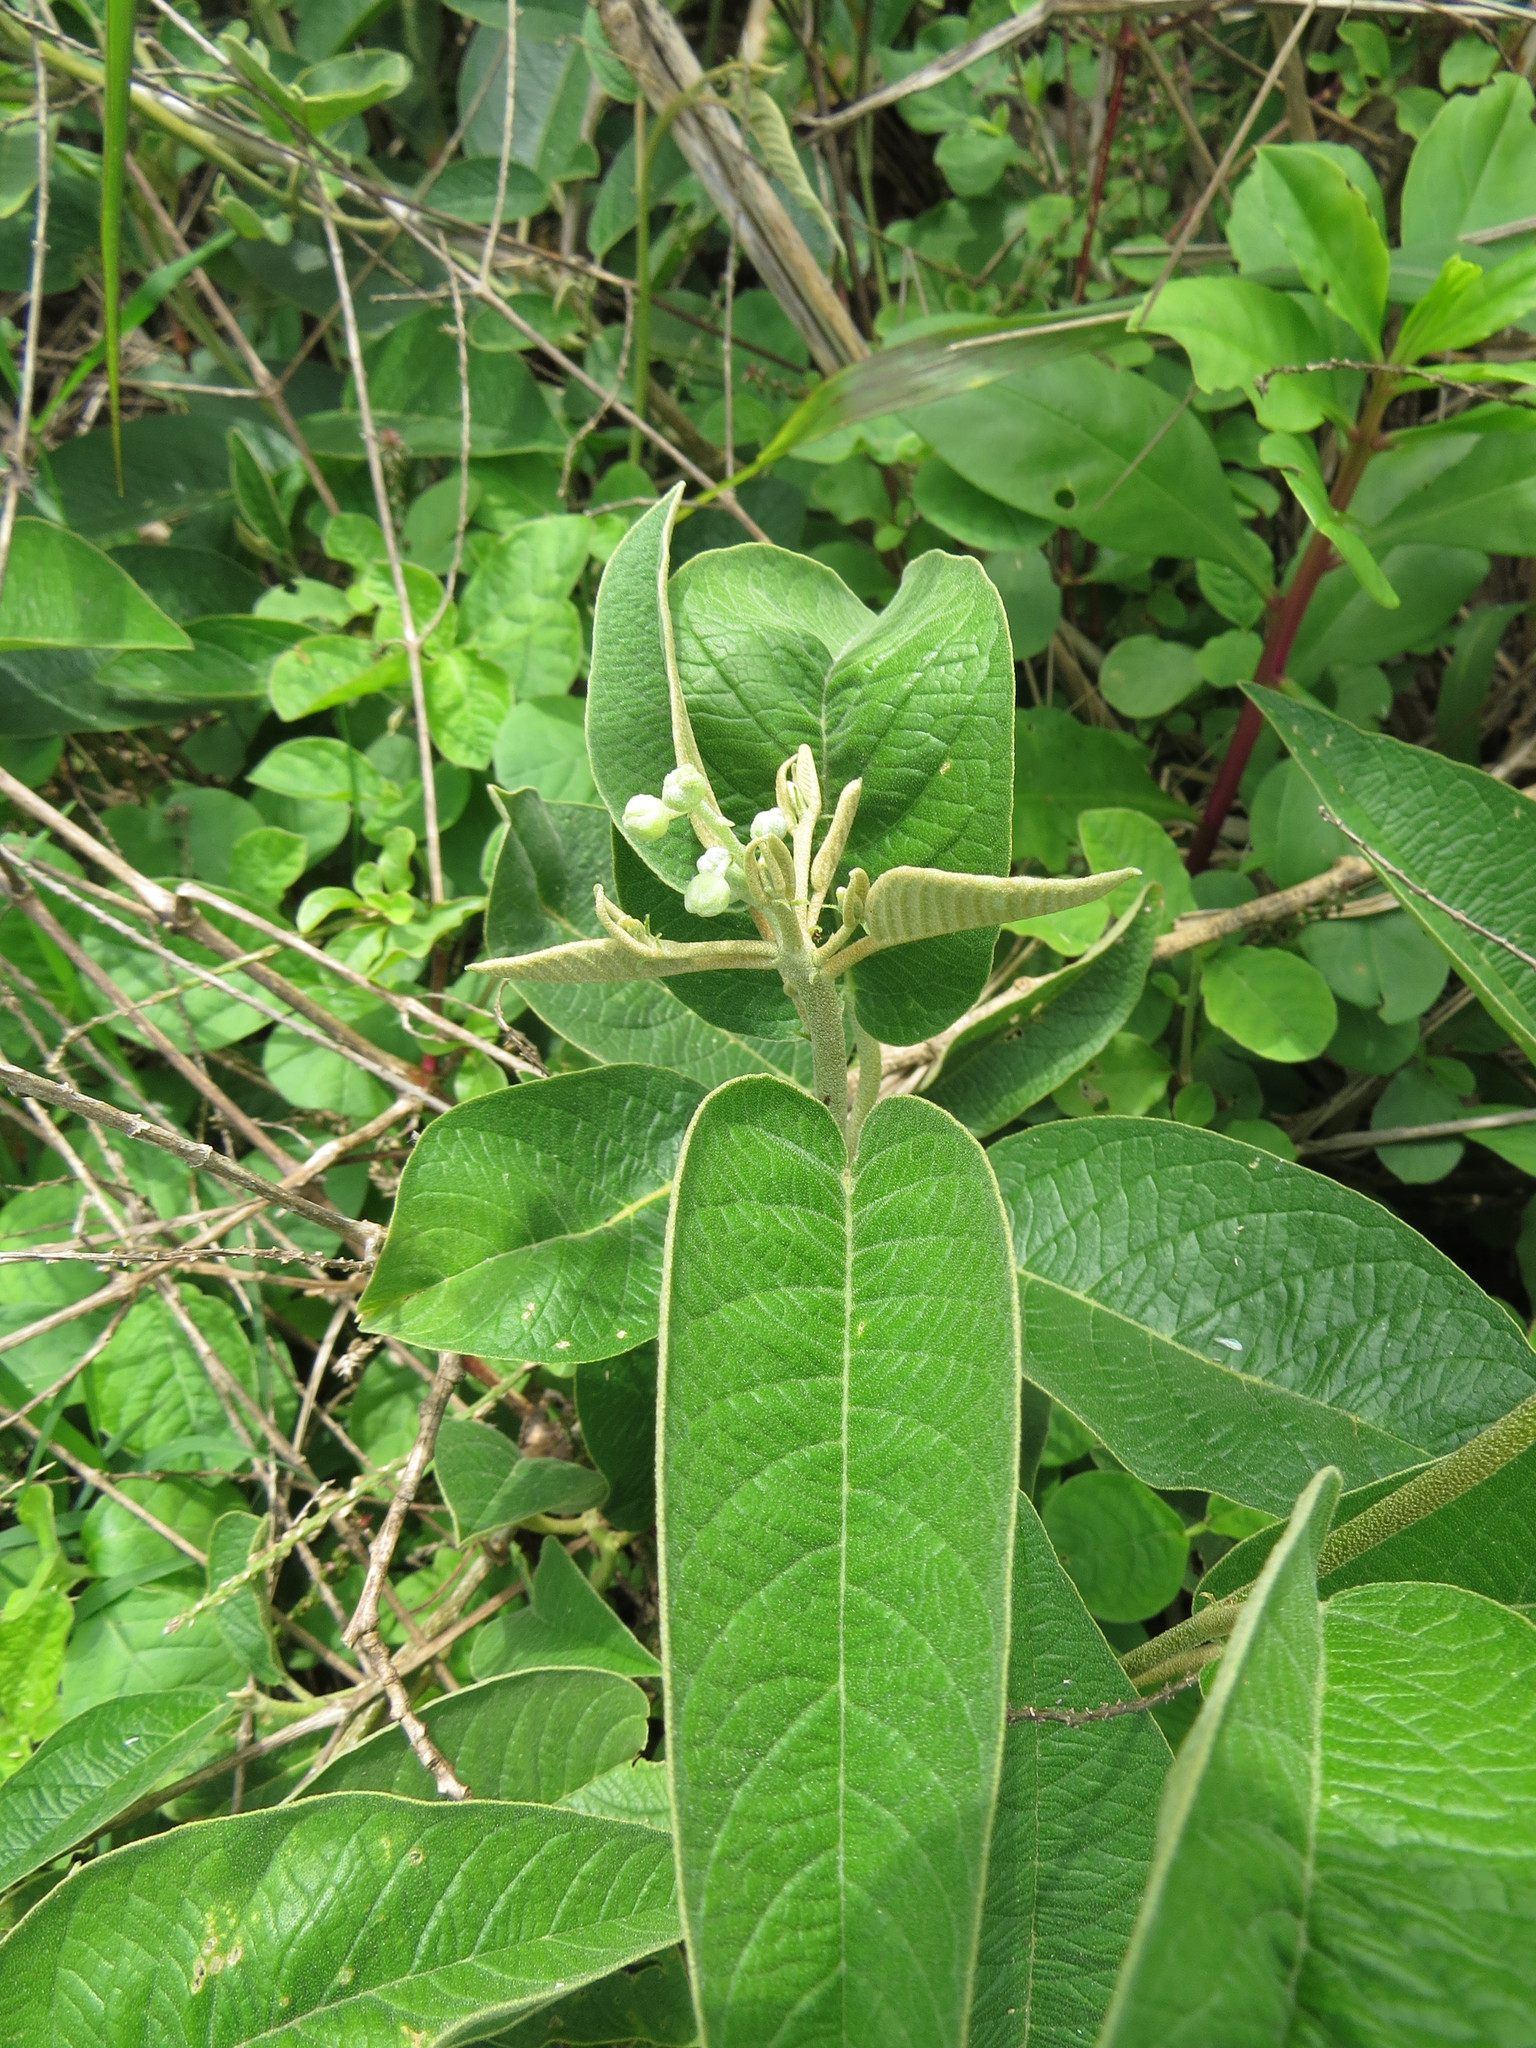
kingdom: Plantae
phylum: Tracheophyta
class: Magnoliopsida
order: Malpighiales
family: Euphorbiaceae
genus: Croton
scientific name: Croton compressus
